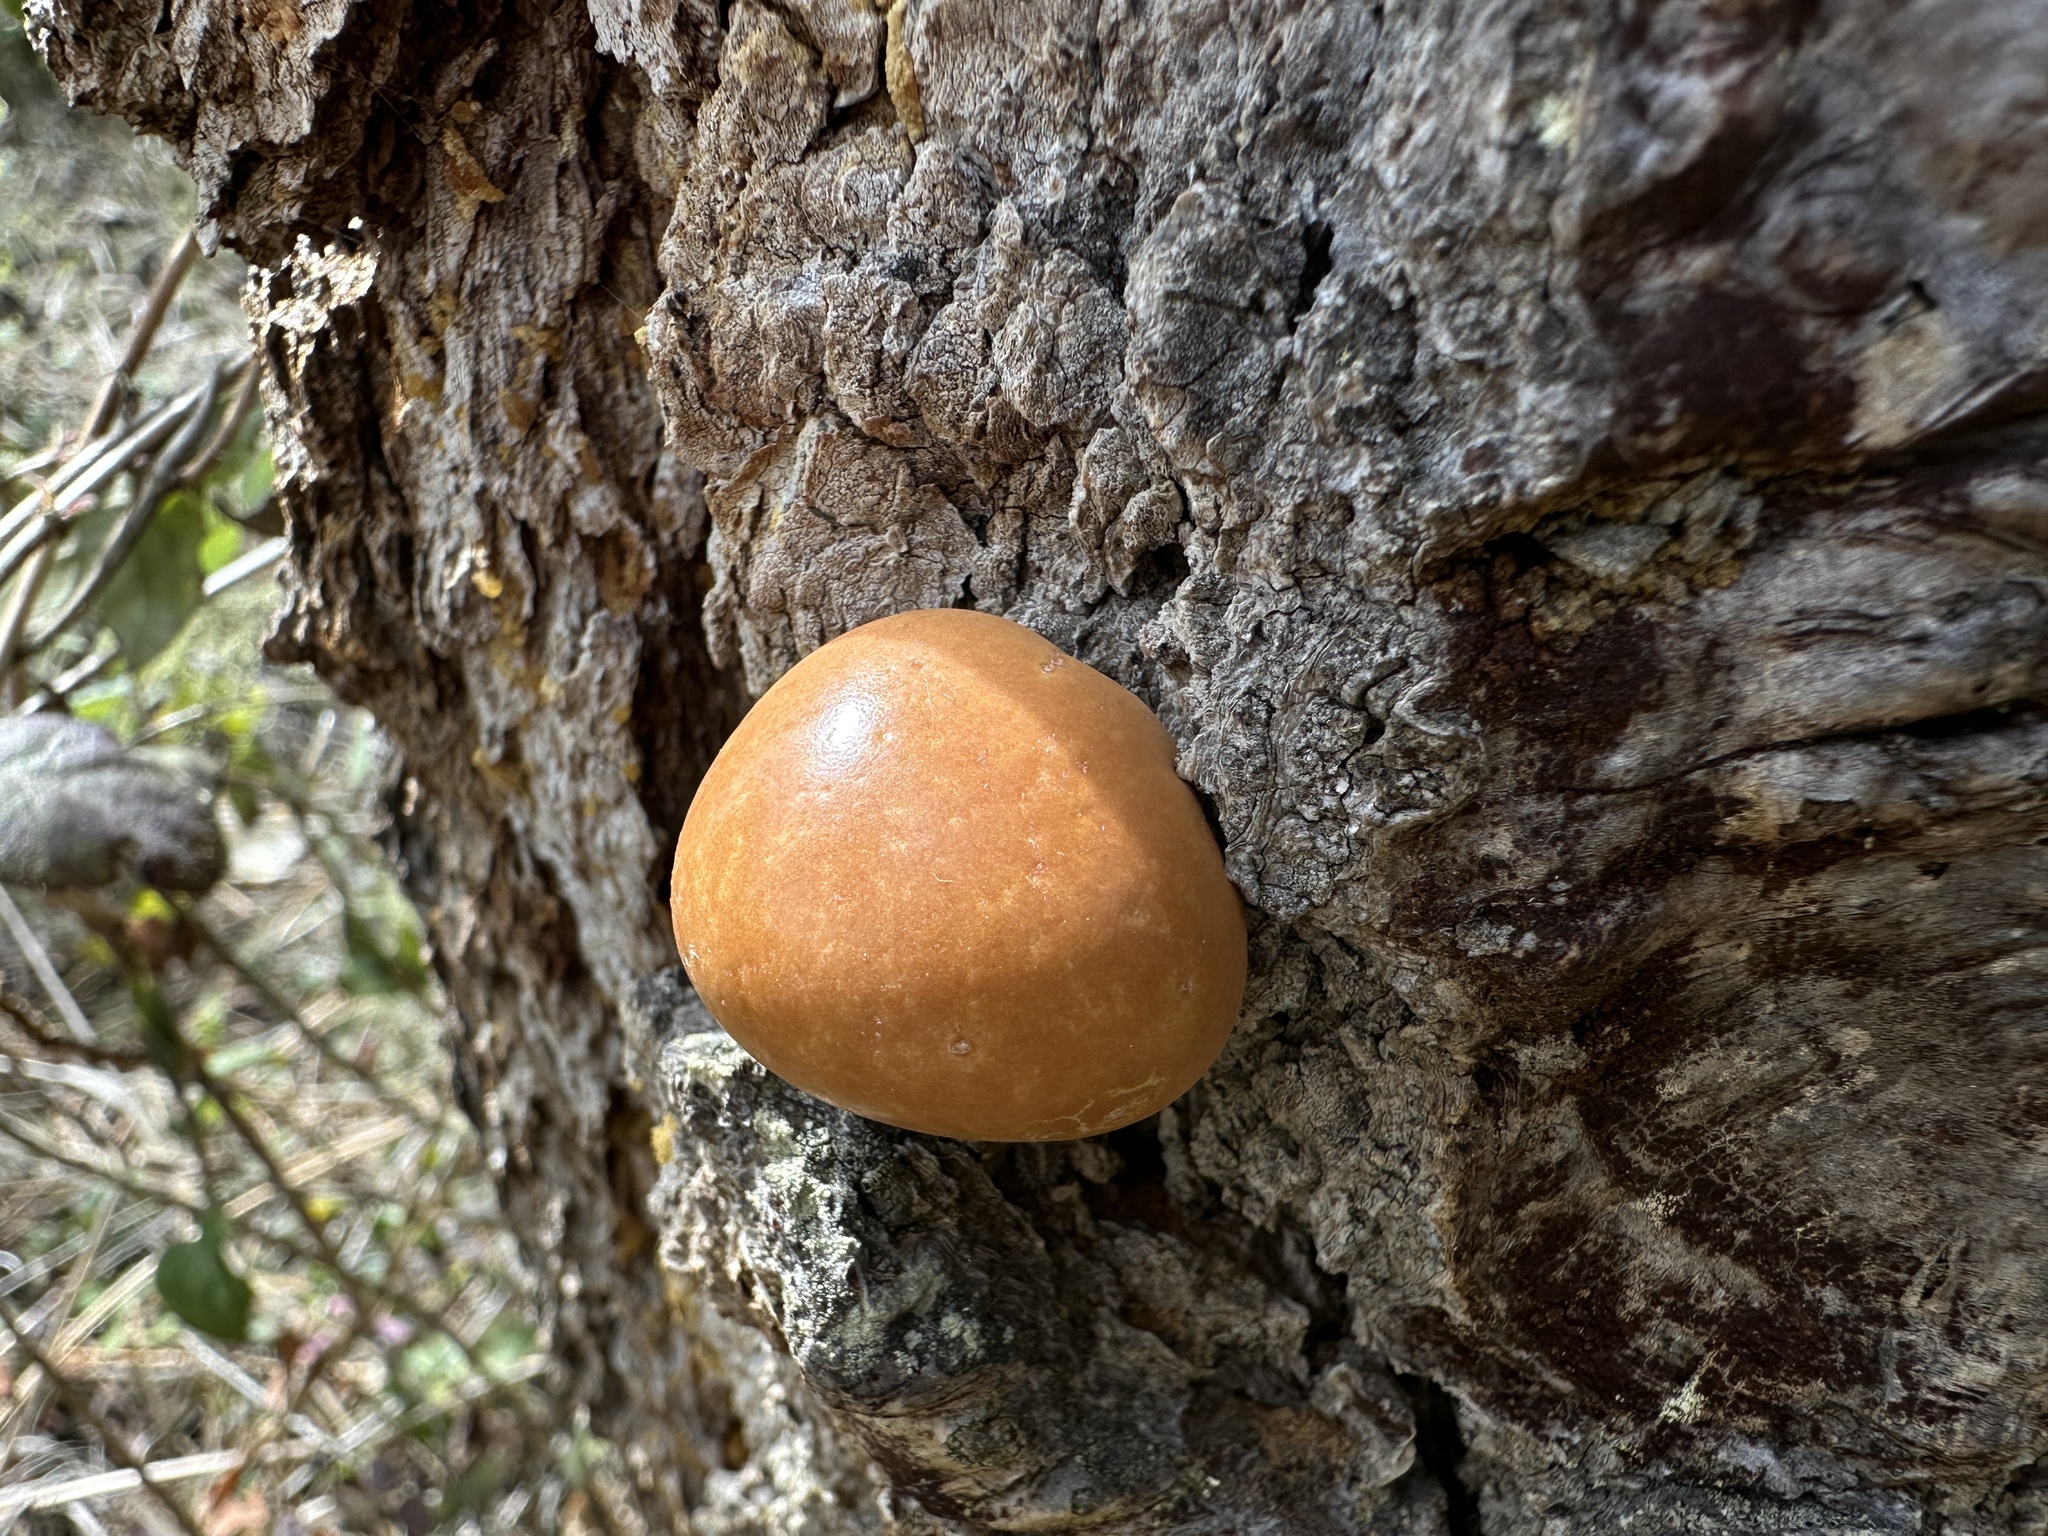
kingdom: Fungi
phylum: Basidiomycota
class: Agaricomycetes
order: Polyporales
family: Polyporaceae
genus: Cryptoporus
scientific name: Cryptoporus volvatus
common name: Veiled polypore
